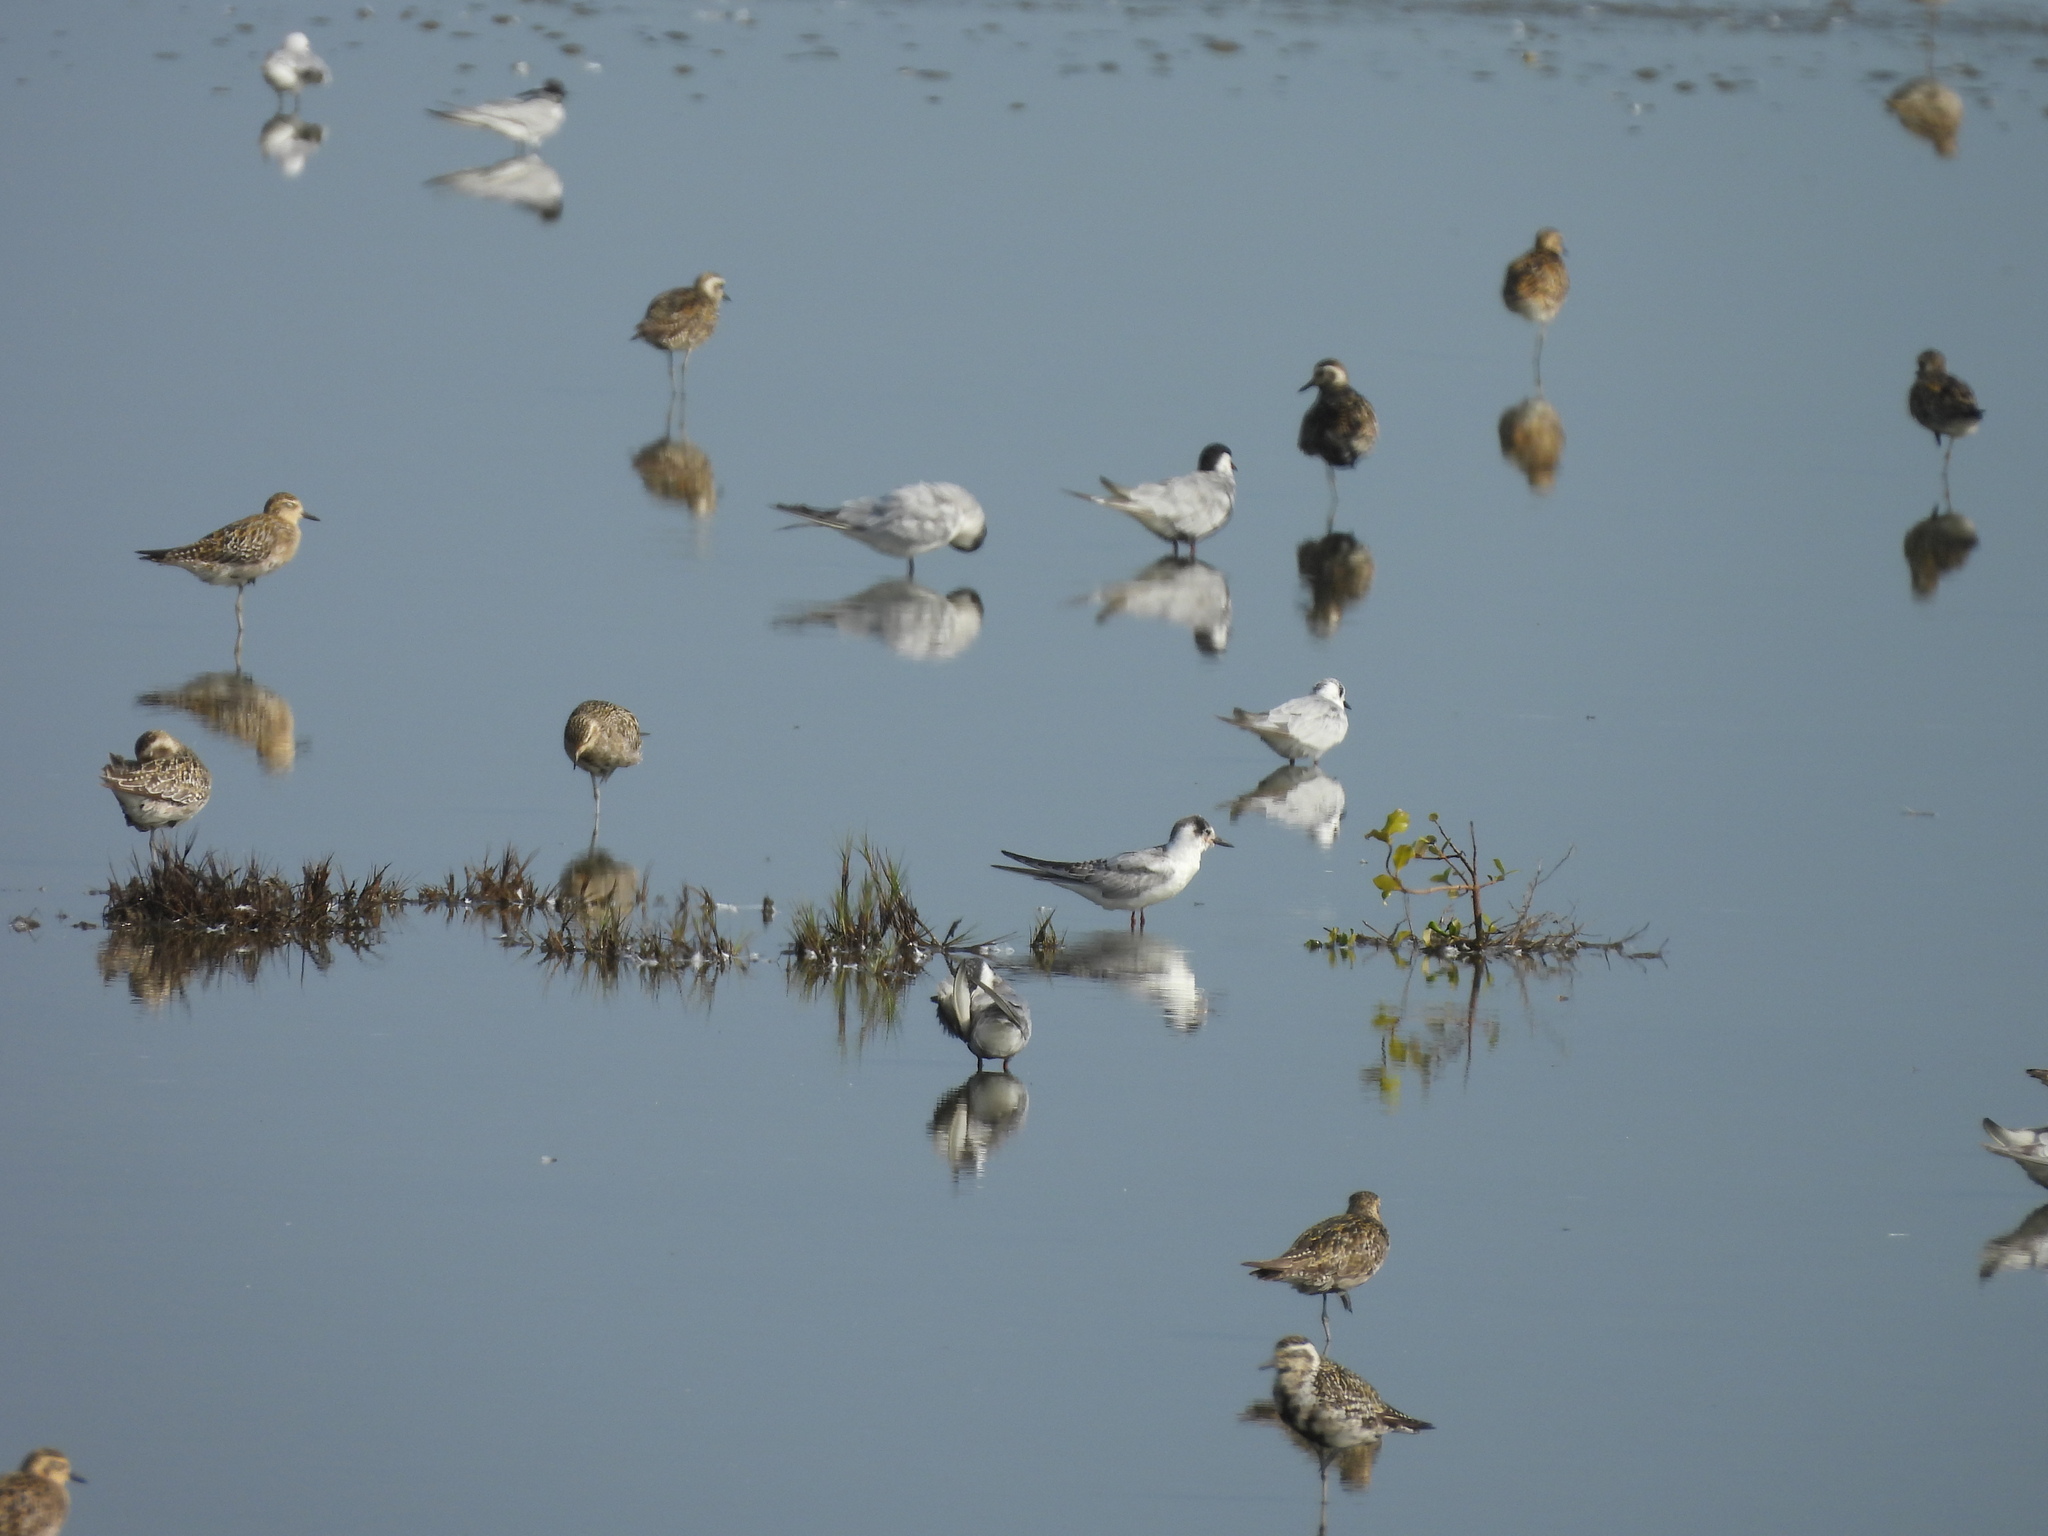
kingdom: Animalia
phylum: Chordata
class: Aves
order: Charadriiformes
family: Laridae
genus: Chlidonias
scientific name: Chlidonias leucopterus
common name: White-winged tern
